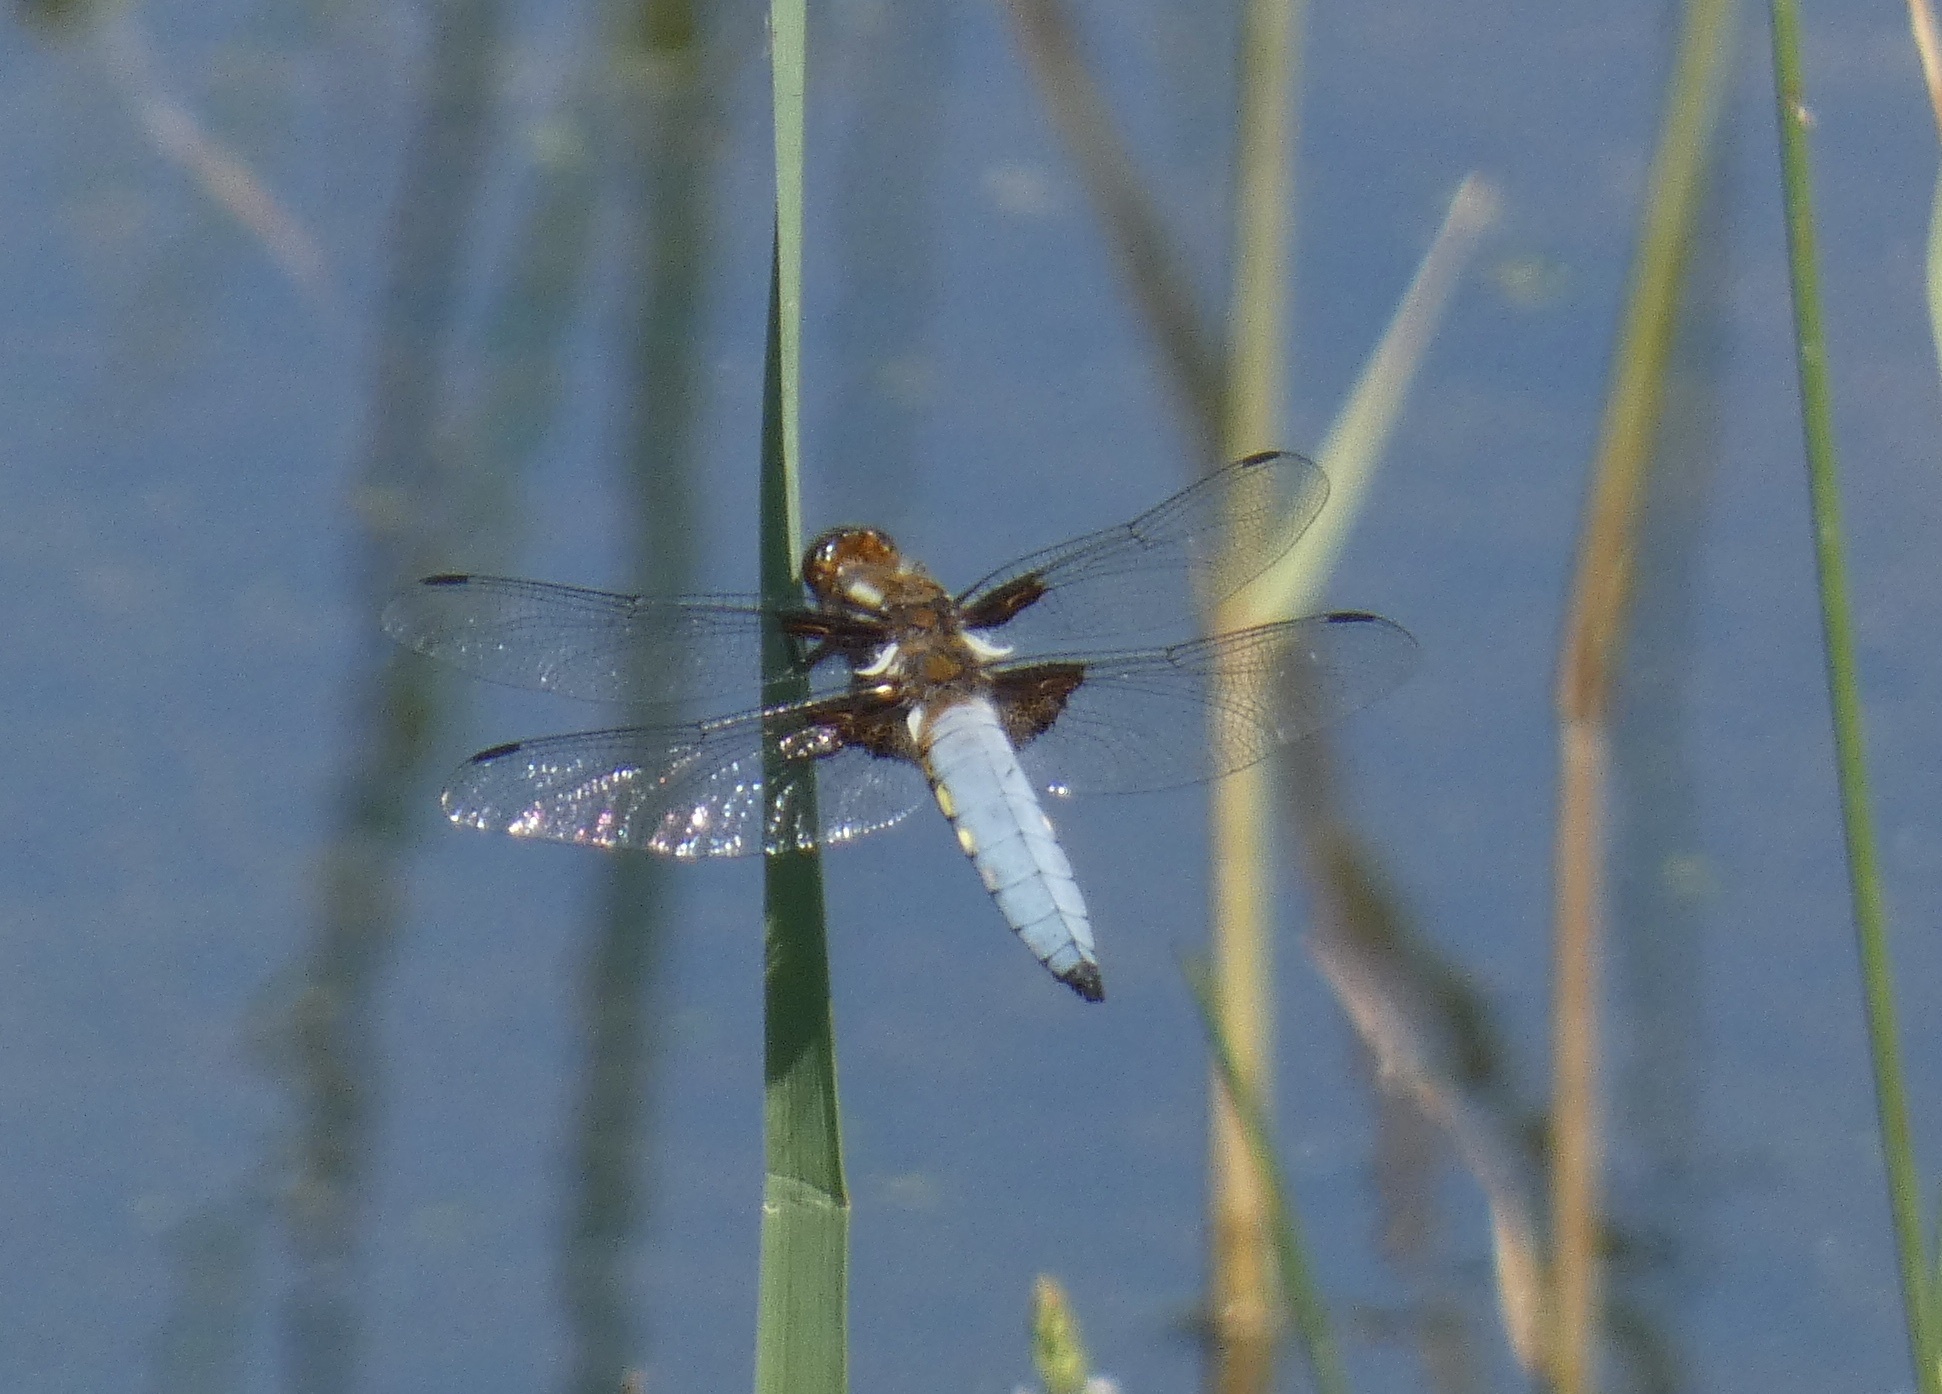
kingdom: Animalia
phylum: Arthropoda
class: Insecta
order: Odonata
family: Libellulidae
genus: Libellula
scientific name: Libellula depressa
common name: Broad-bodied chaser
